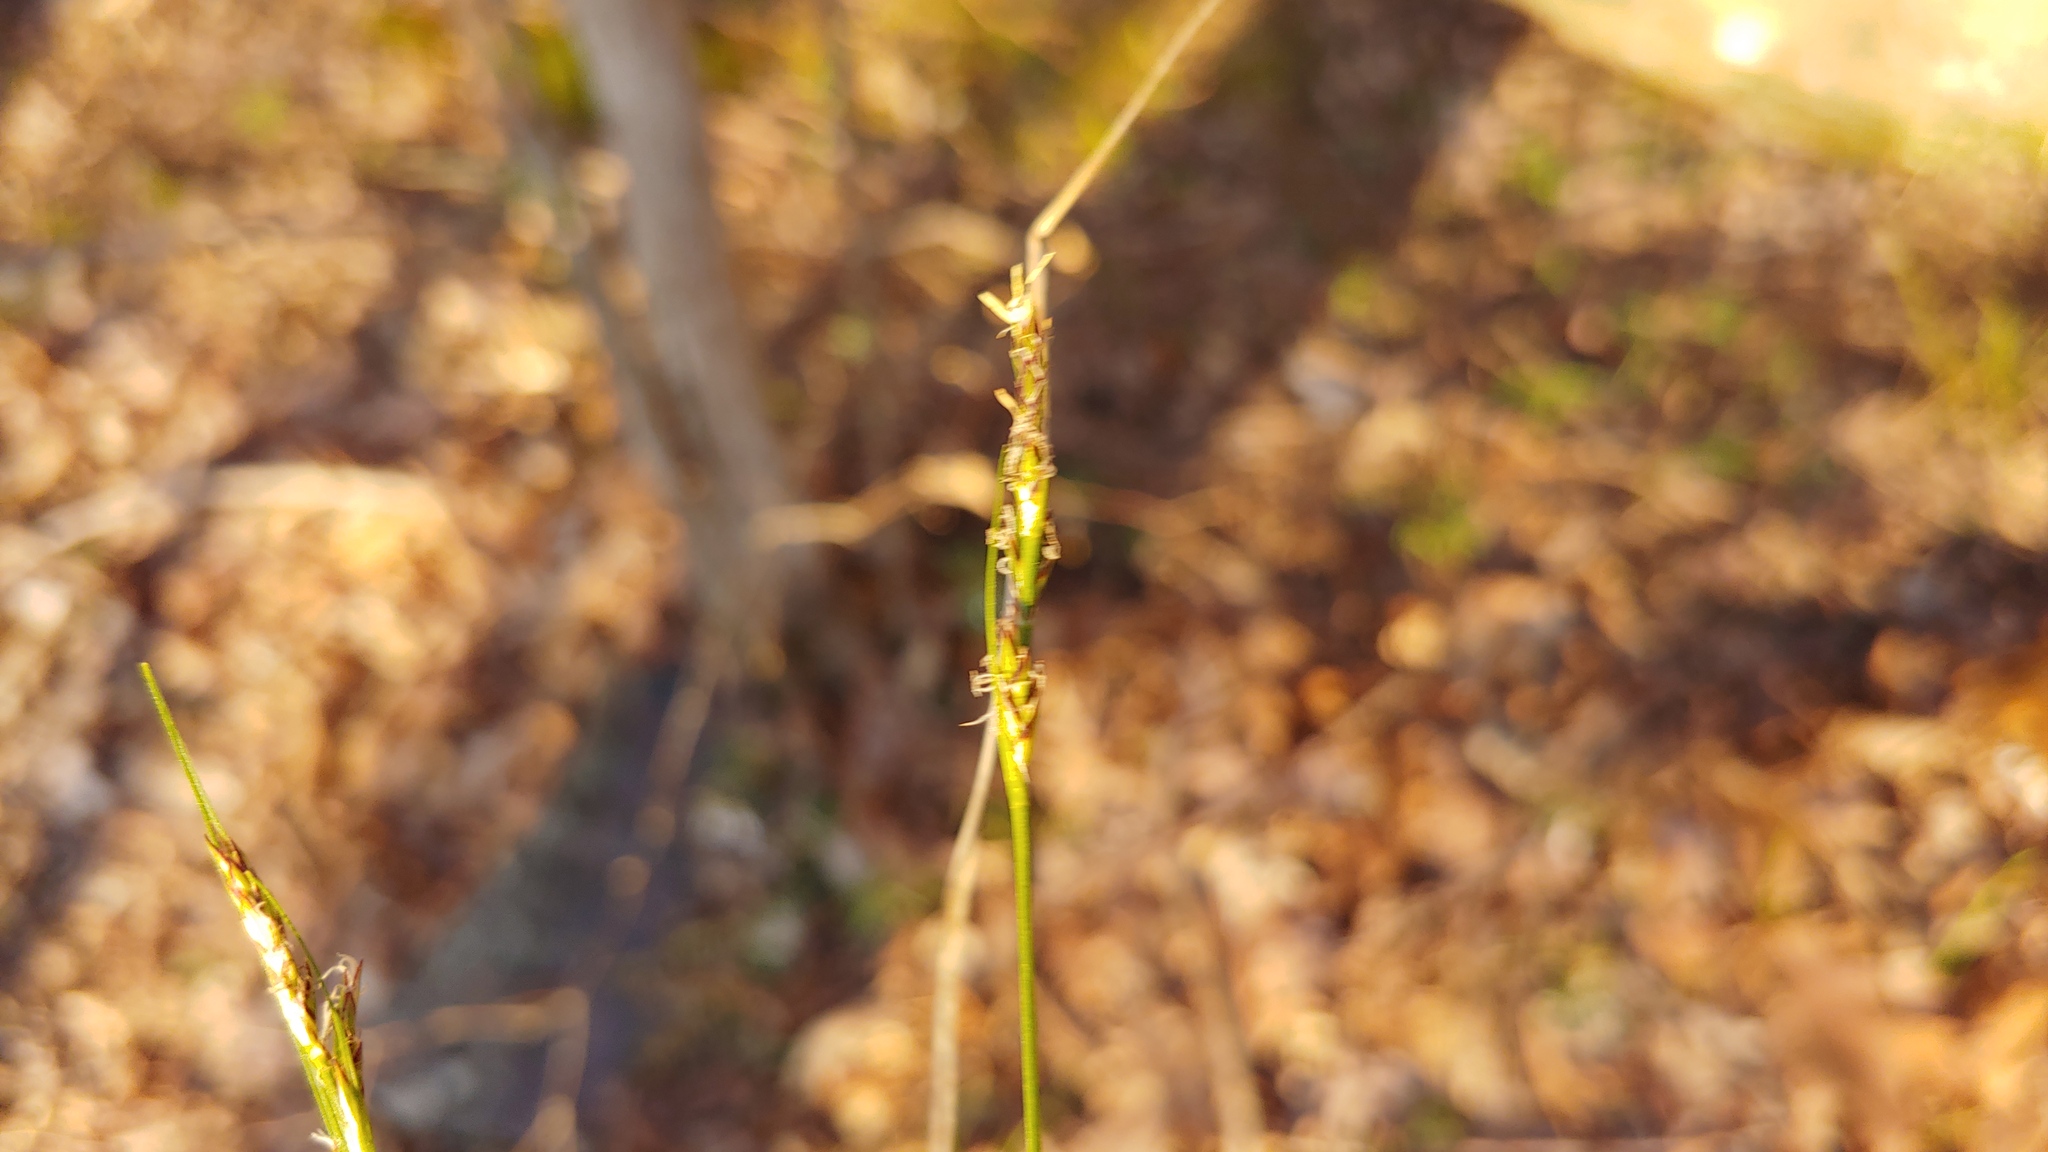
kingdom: Plantae
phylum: Tracheophyta
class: Liliopsida
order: Poales
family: Cyperaceae
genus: Carex
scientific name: Carex albicans
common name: Bellow-beaked sedge
